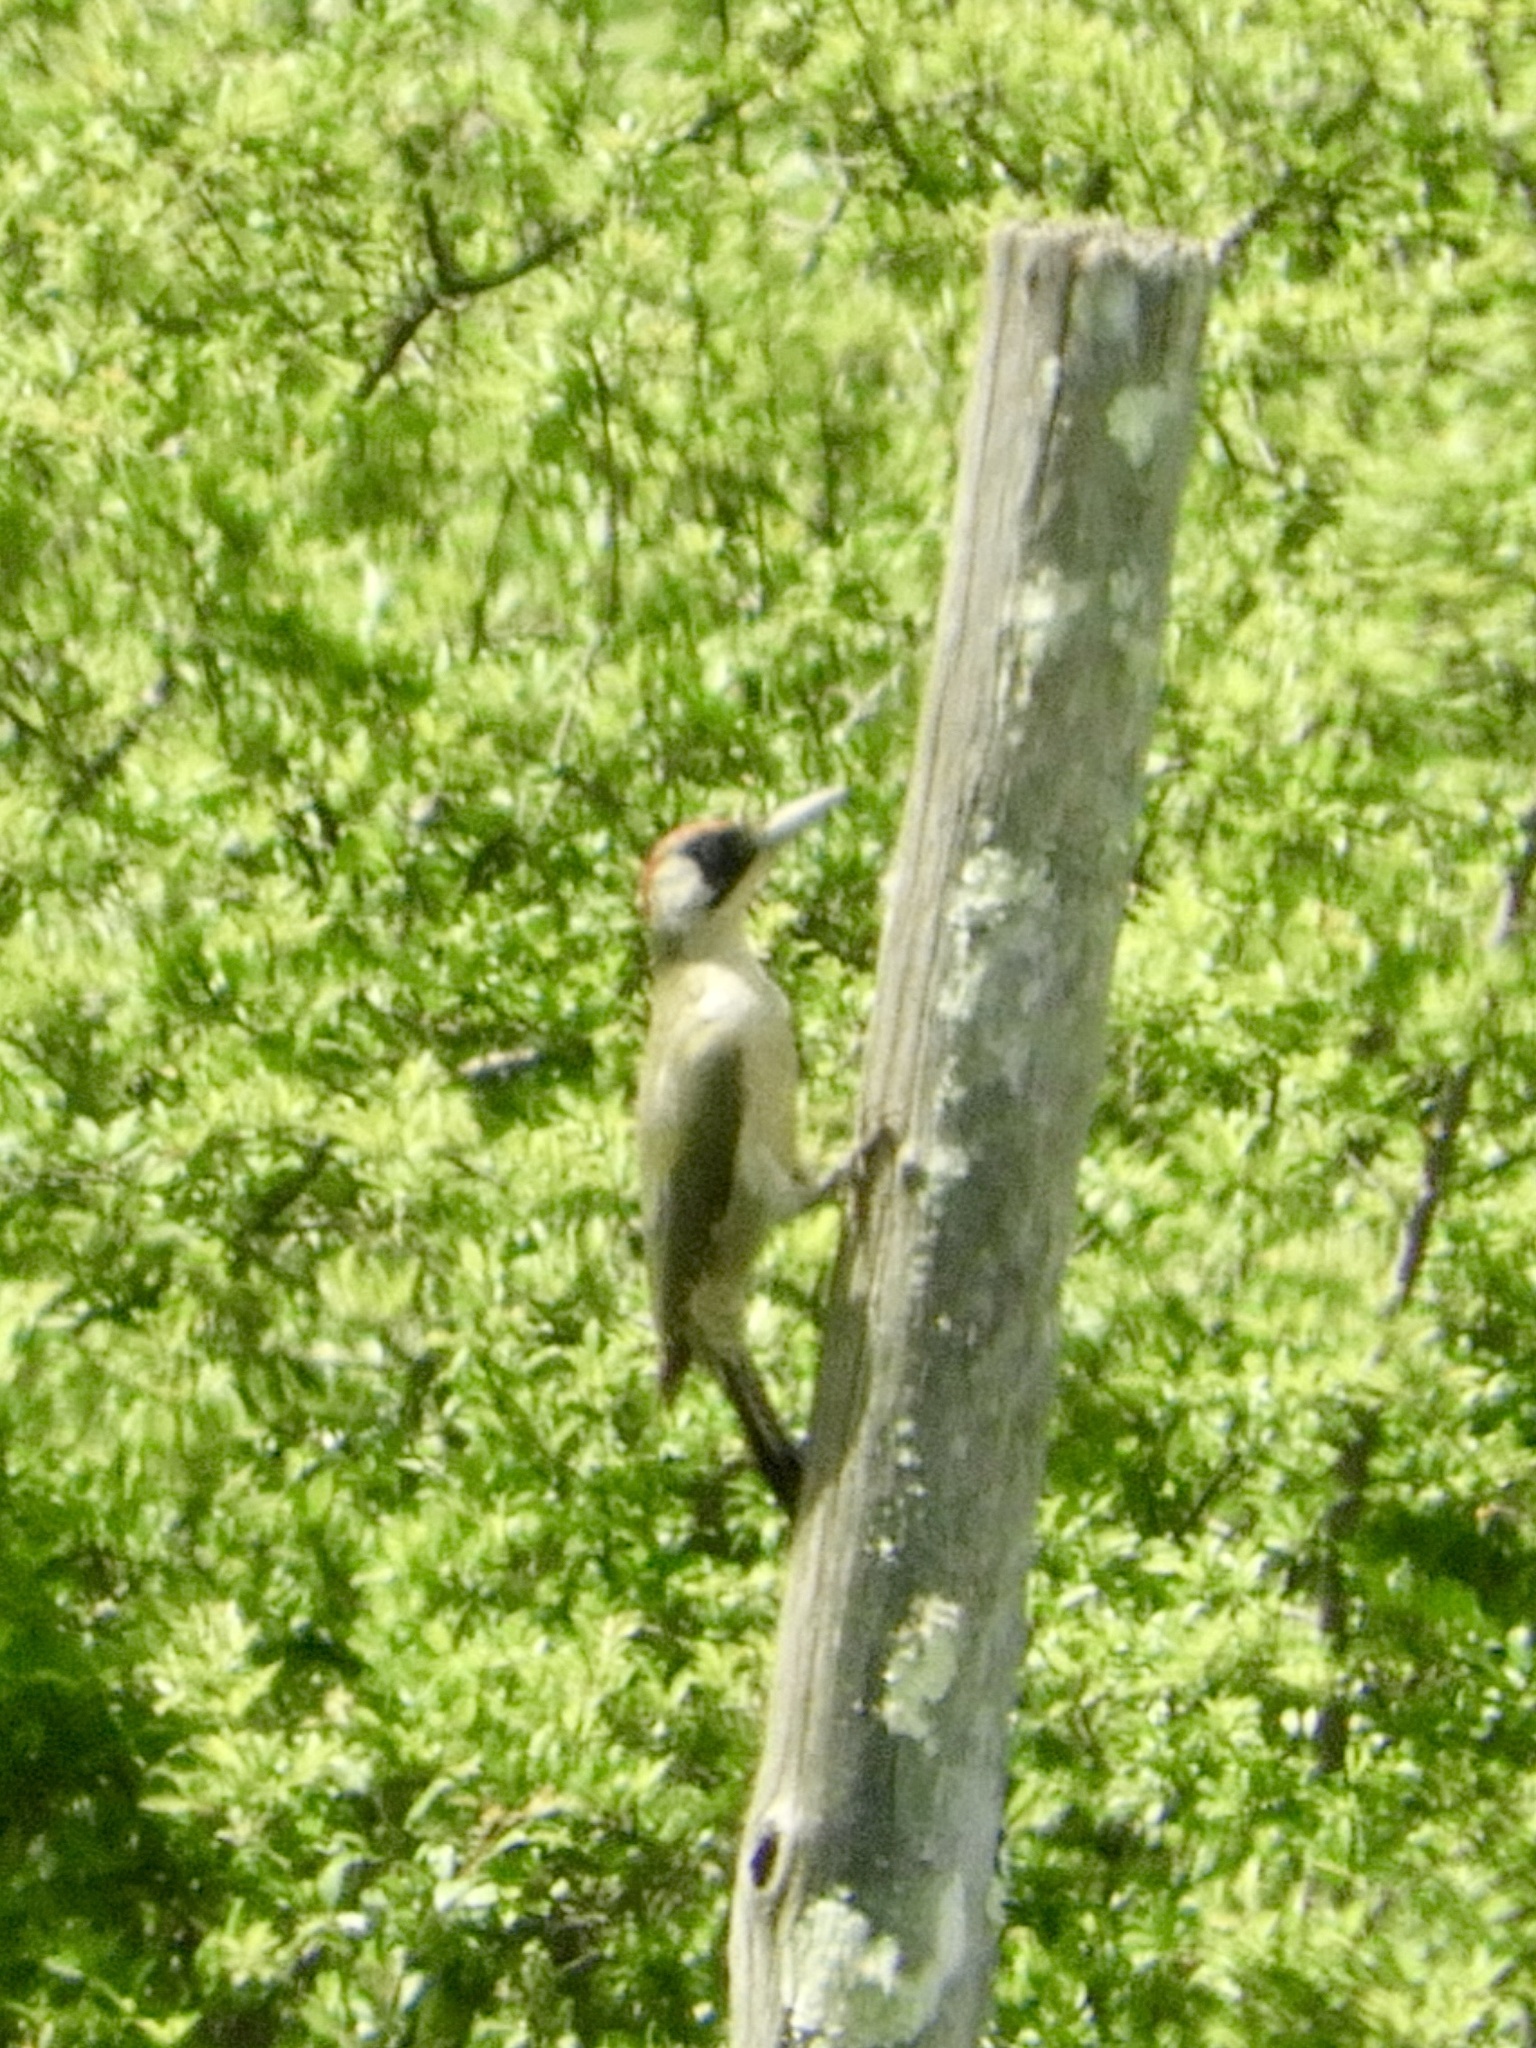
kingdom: Animalia
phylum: Chordata
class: Aves
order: Piciformes
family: Picidae
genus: Picus
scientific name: Picus viridis
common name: European green woodpecker
